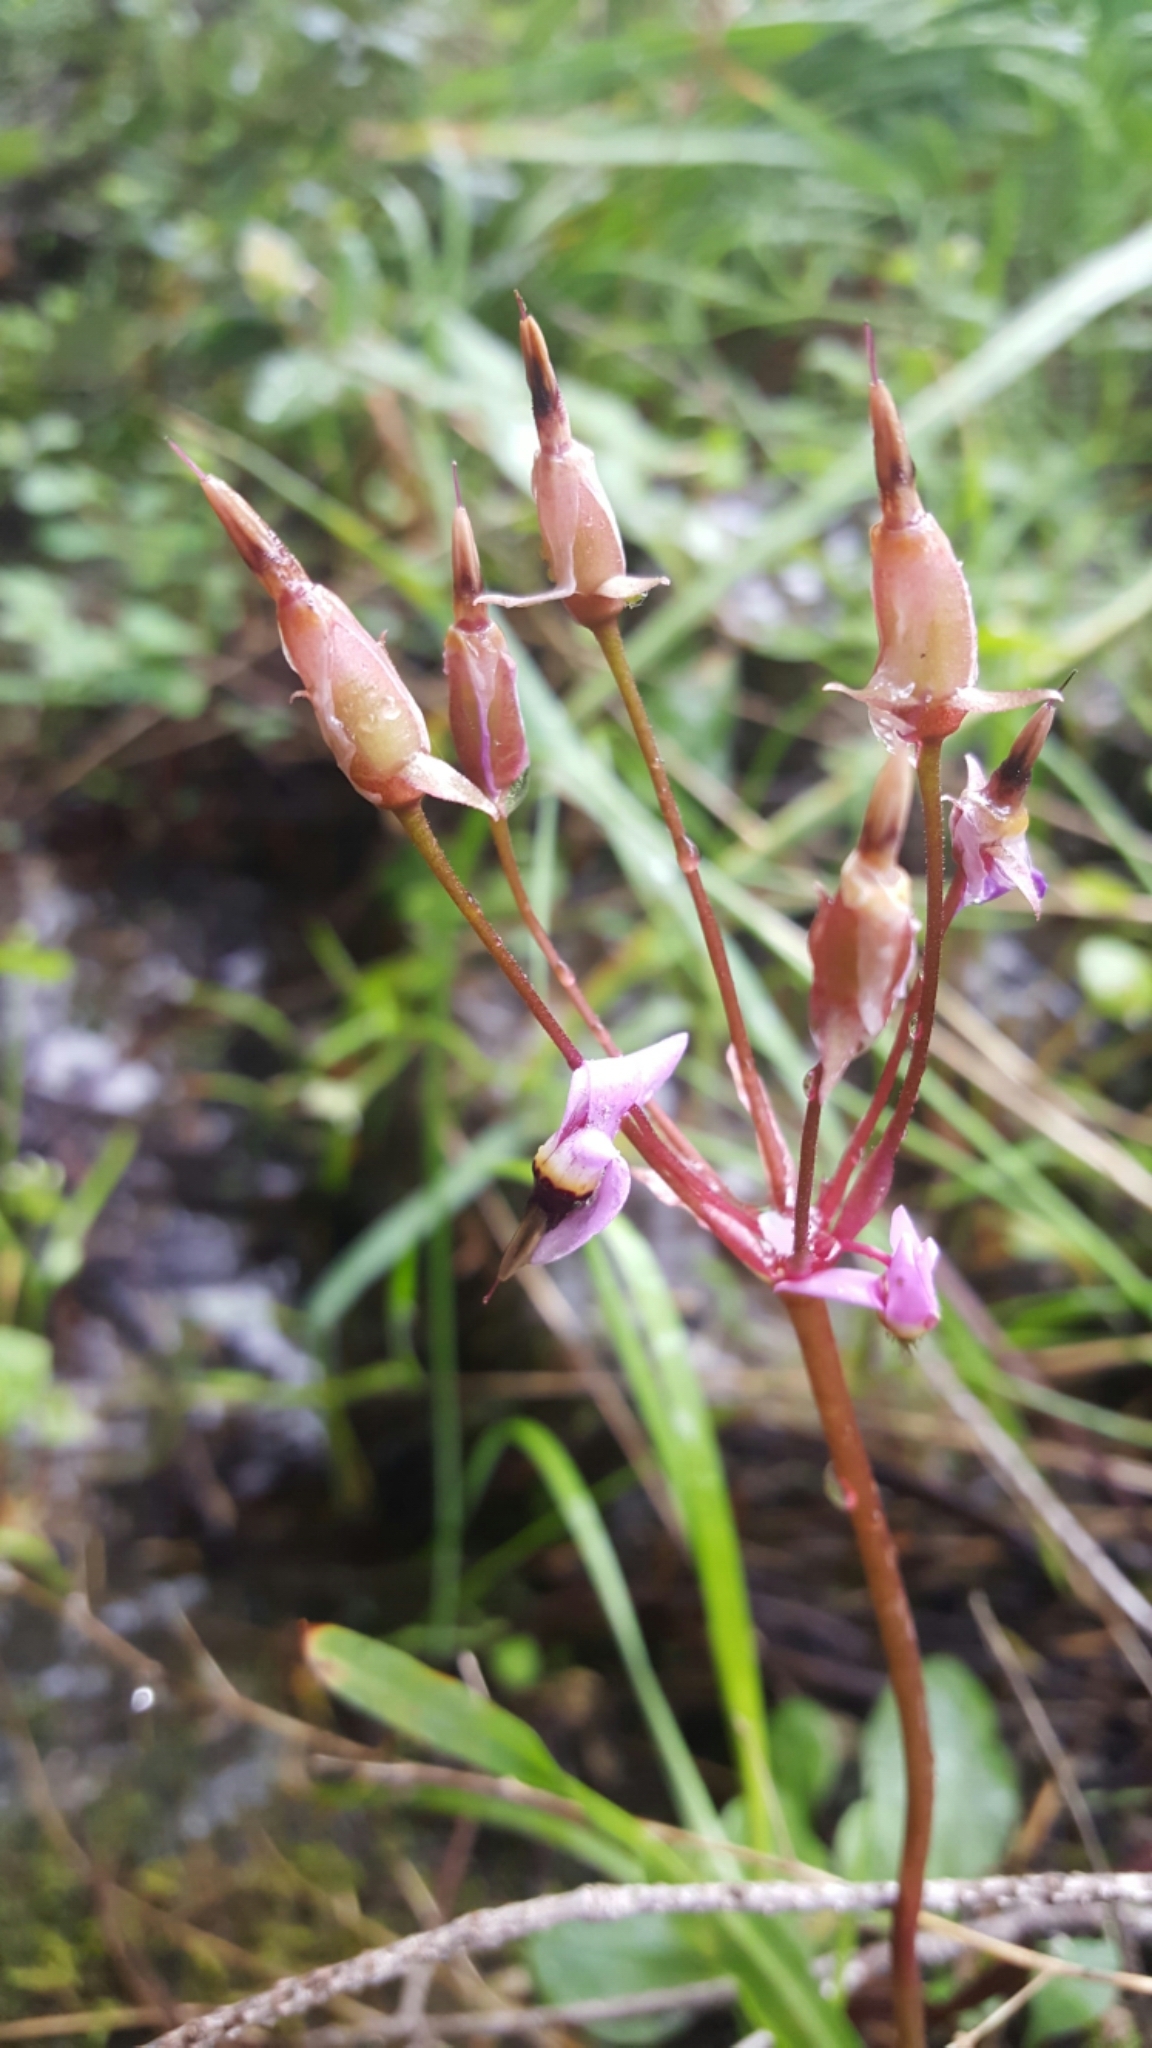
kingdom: Plantae
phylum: Tracheophyta
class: Magnoliopsida
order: Ericales
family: Primulaceae
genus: Dodecatheon
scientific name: Dodecatheon hendersonii
